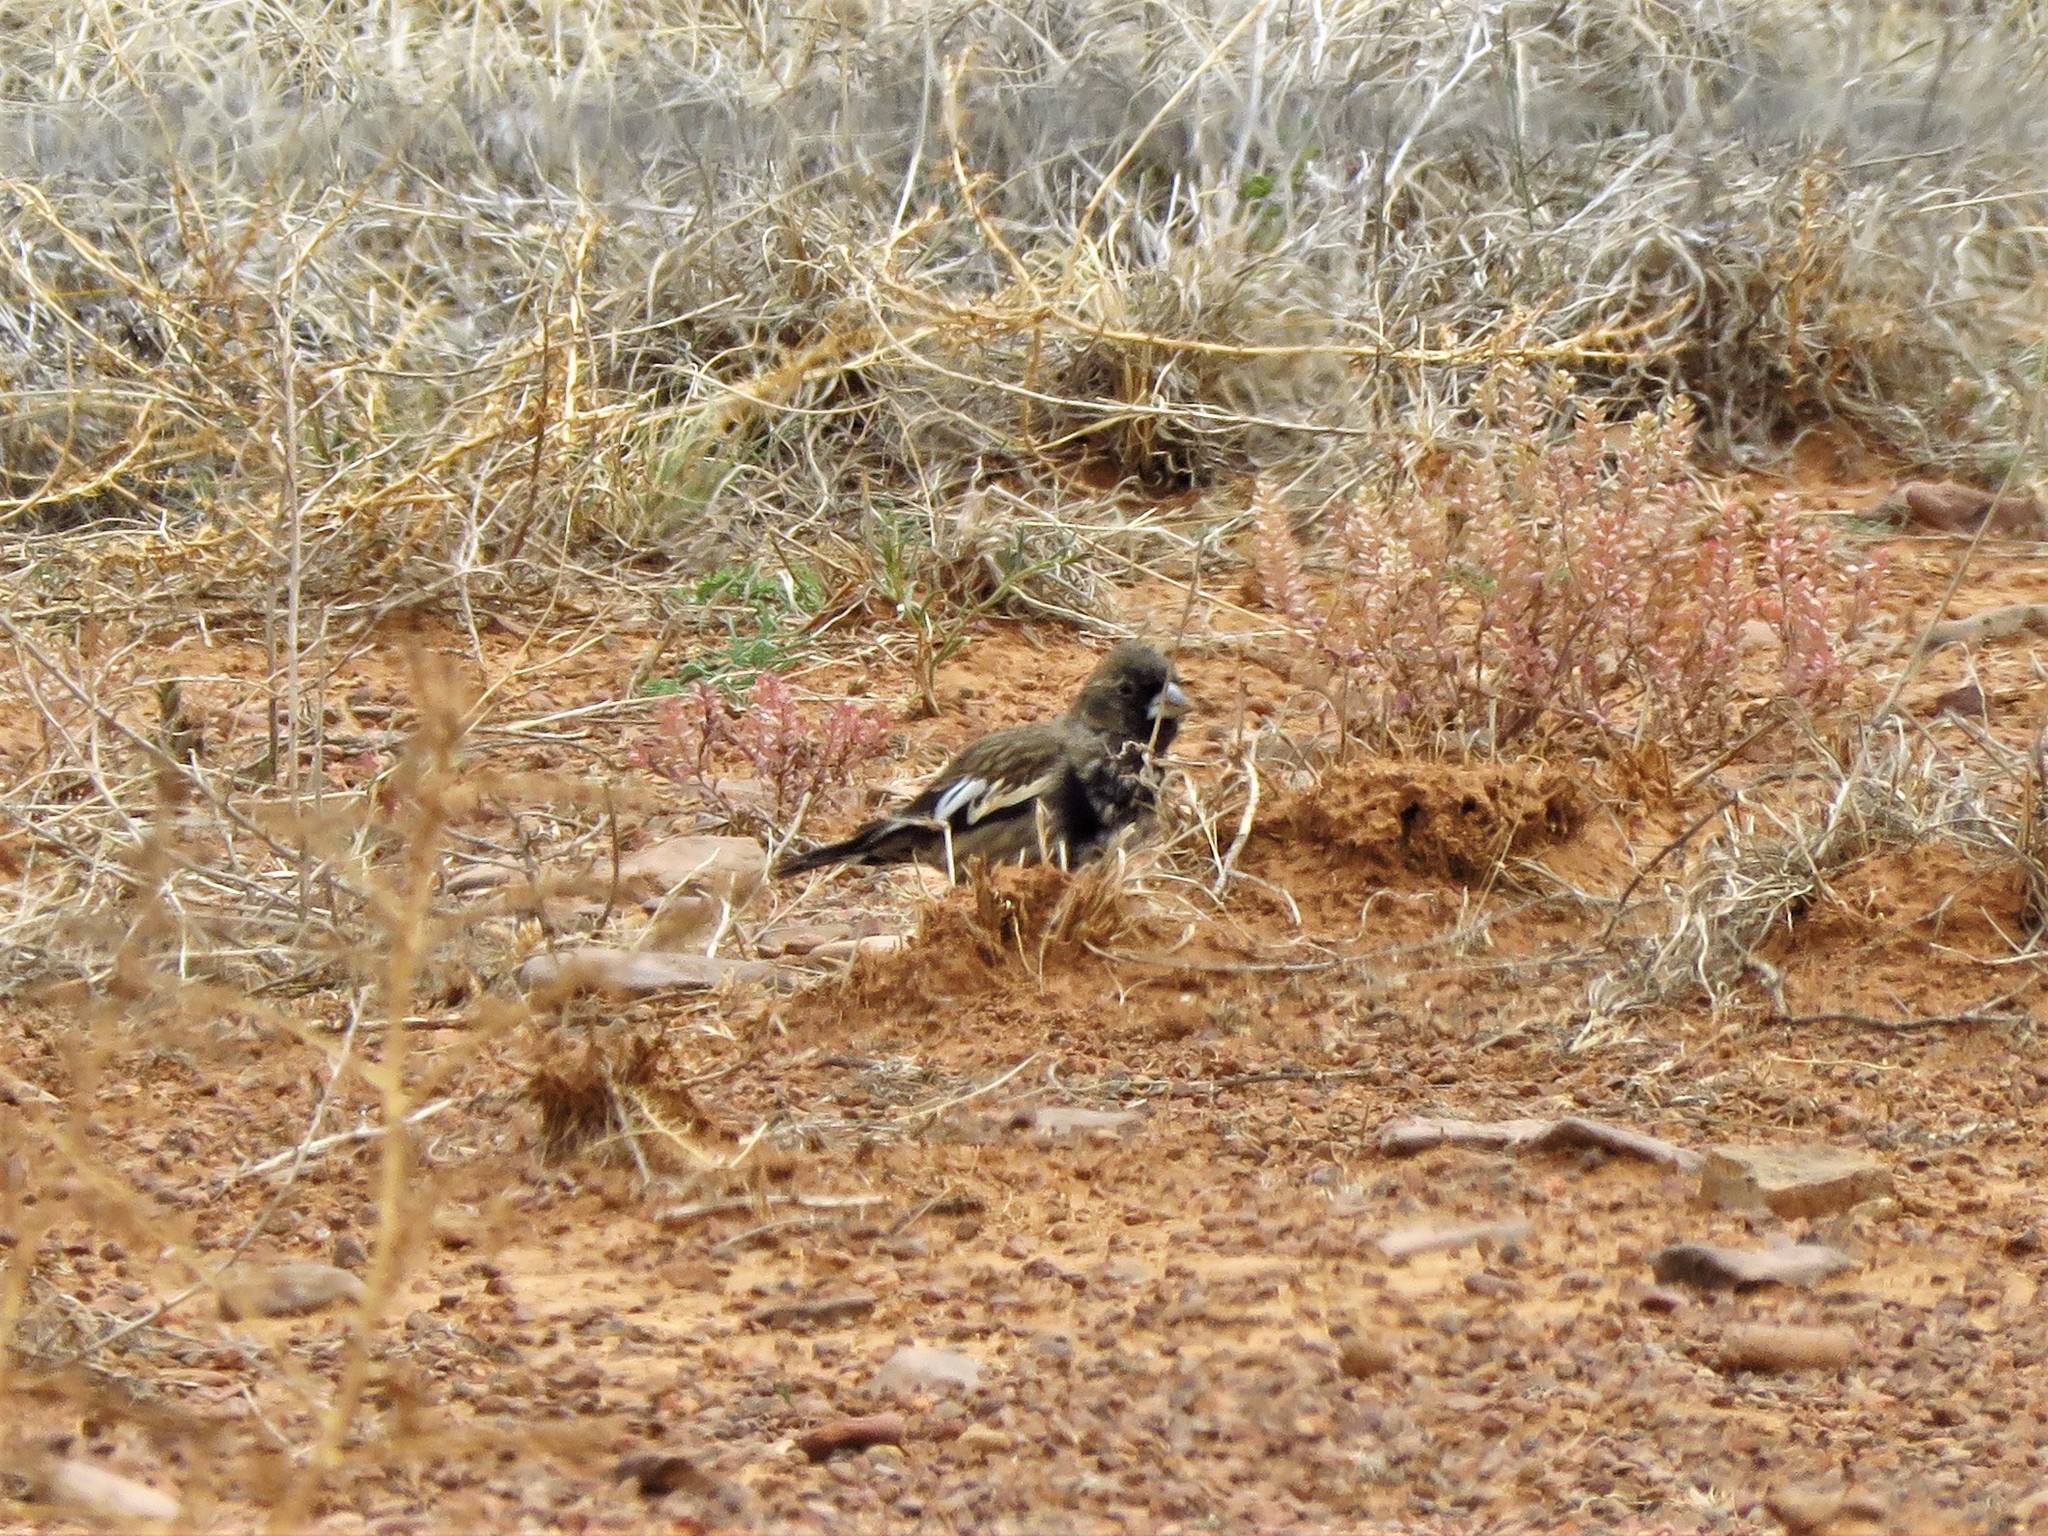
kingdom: Animalia
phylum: Chordata
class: Aves
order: Passeriformes
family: Passerellidae
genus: Calamospiza
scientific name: Calamospiza melanocorys
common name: Lark bunting
